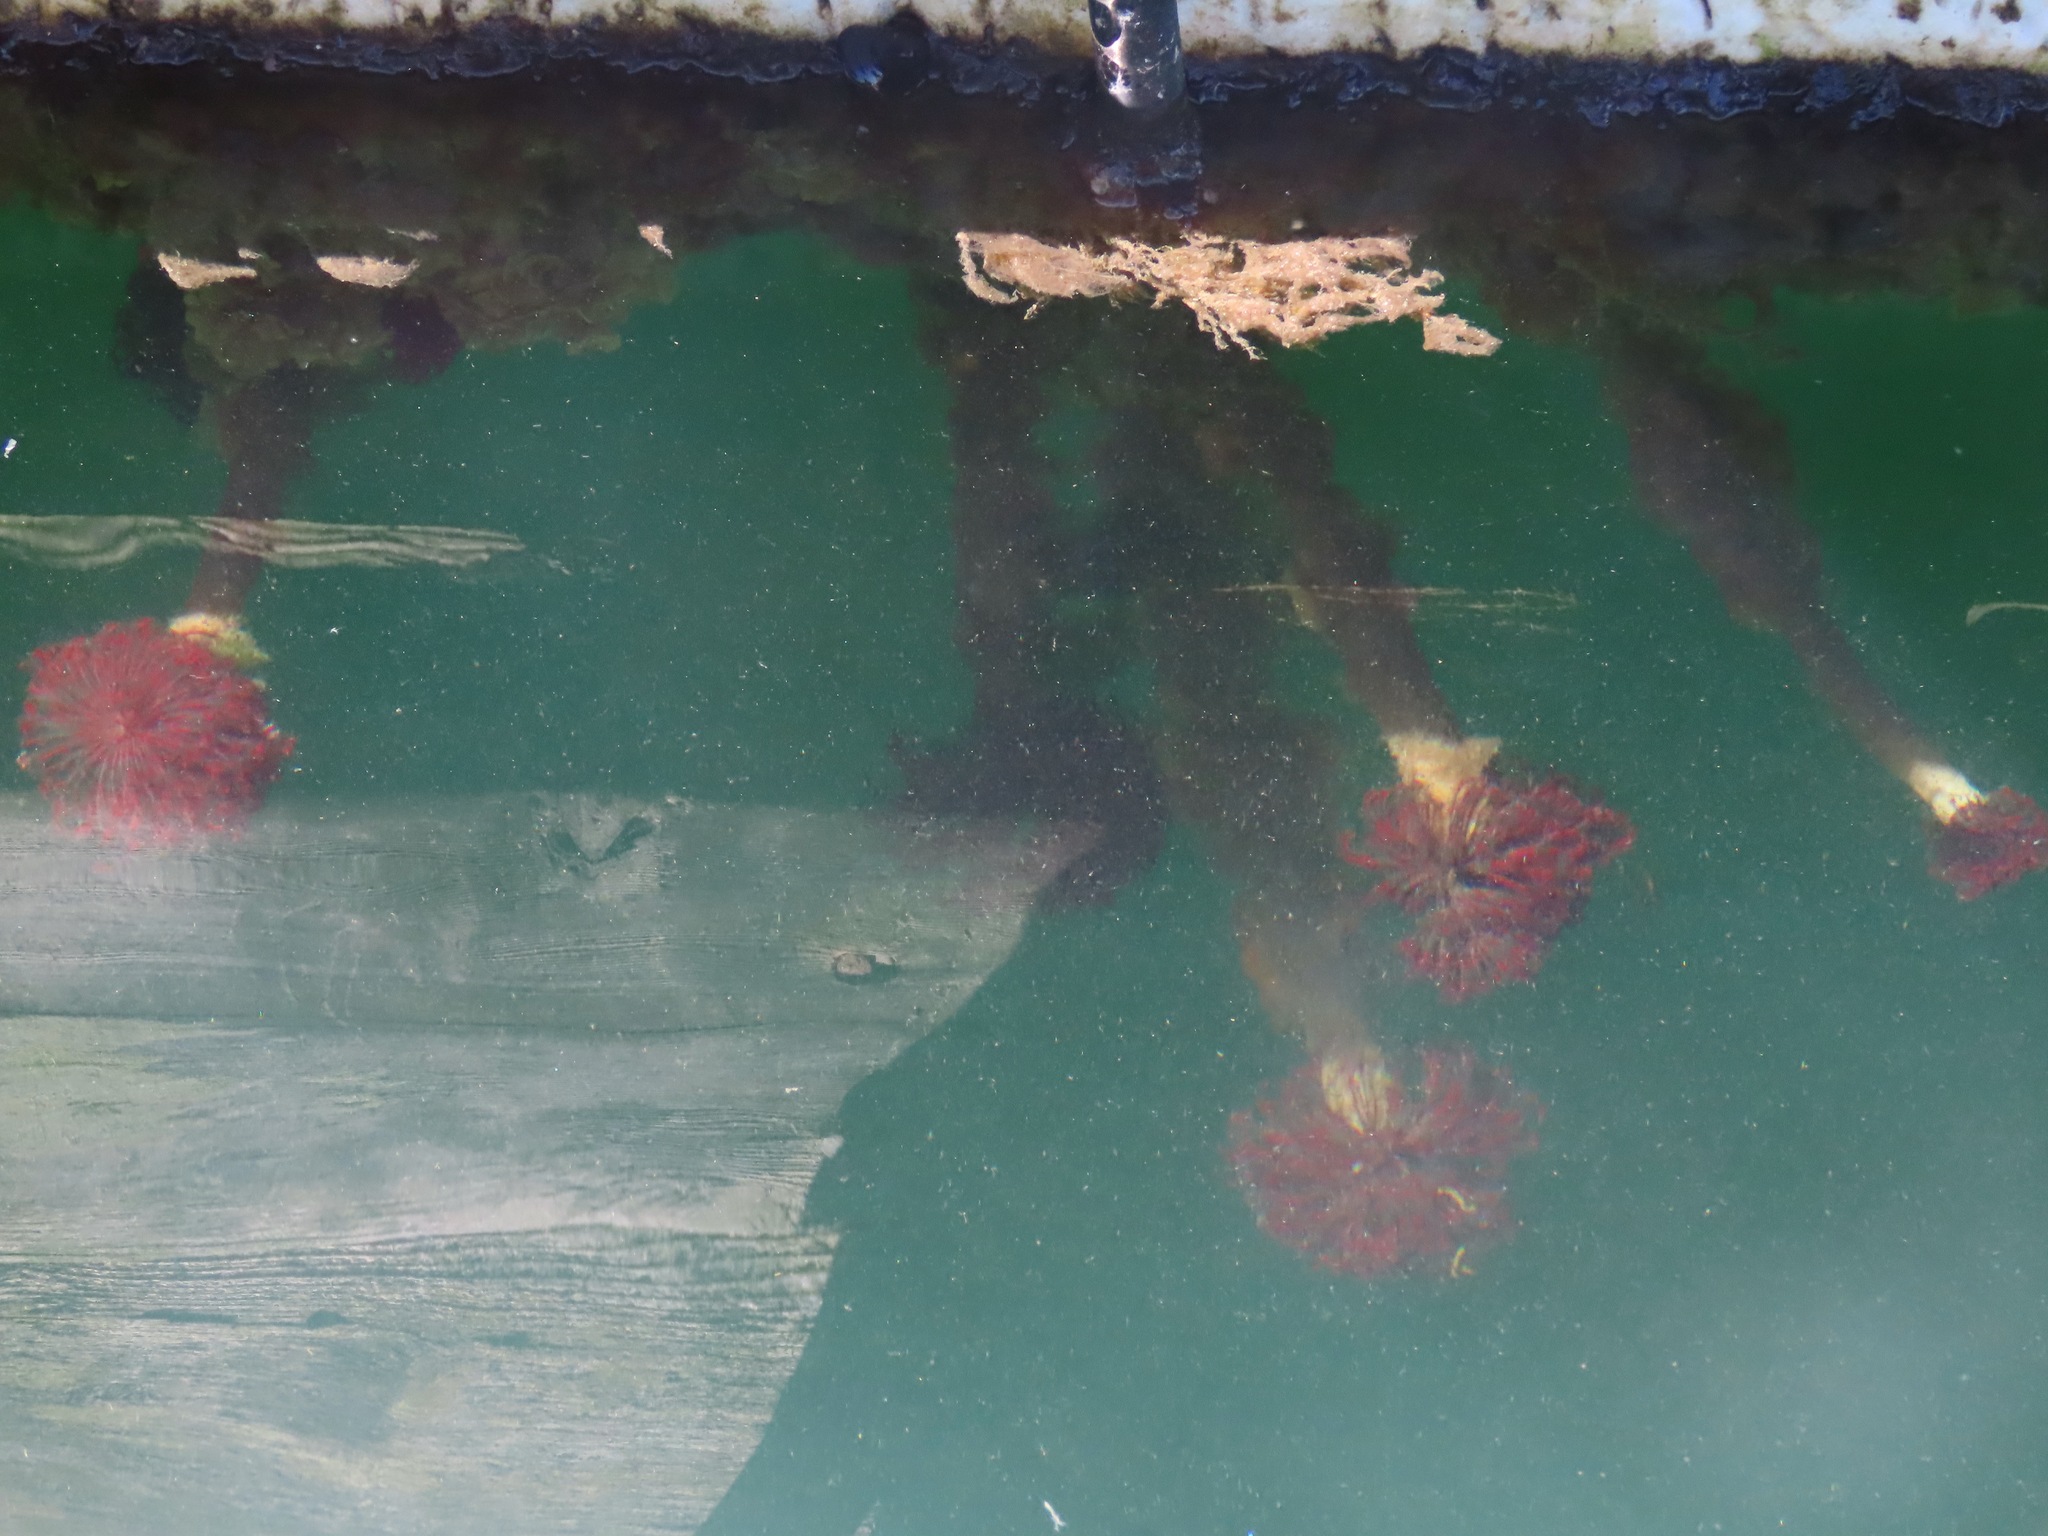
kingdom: Animalia
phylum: Annelida
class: Polychaeta
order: Sabellida
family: Sabellidae
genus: Eudistylia
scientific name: Eudistylia vancouveri
